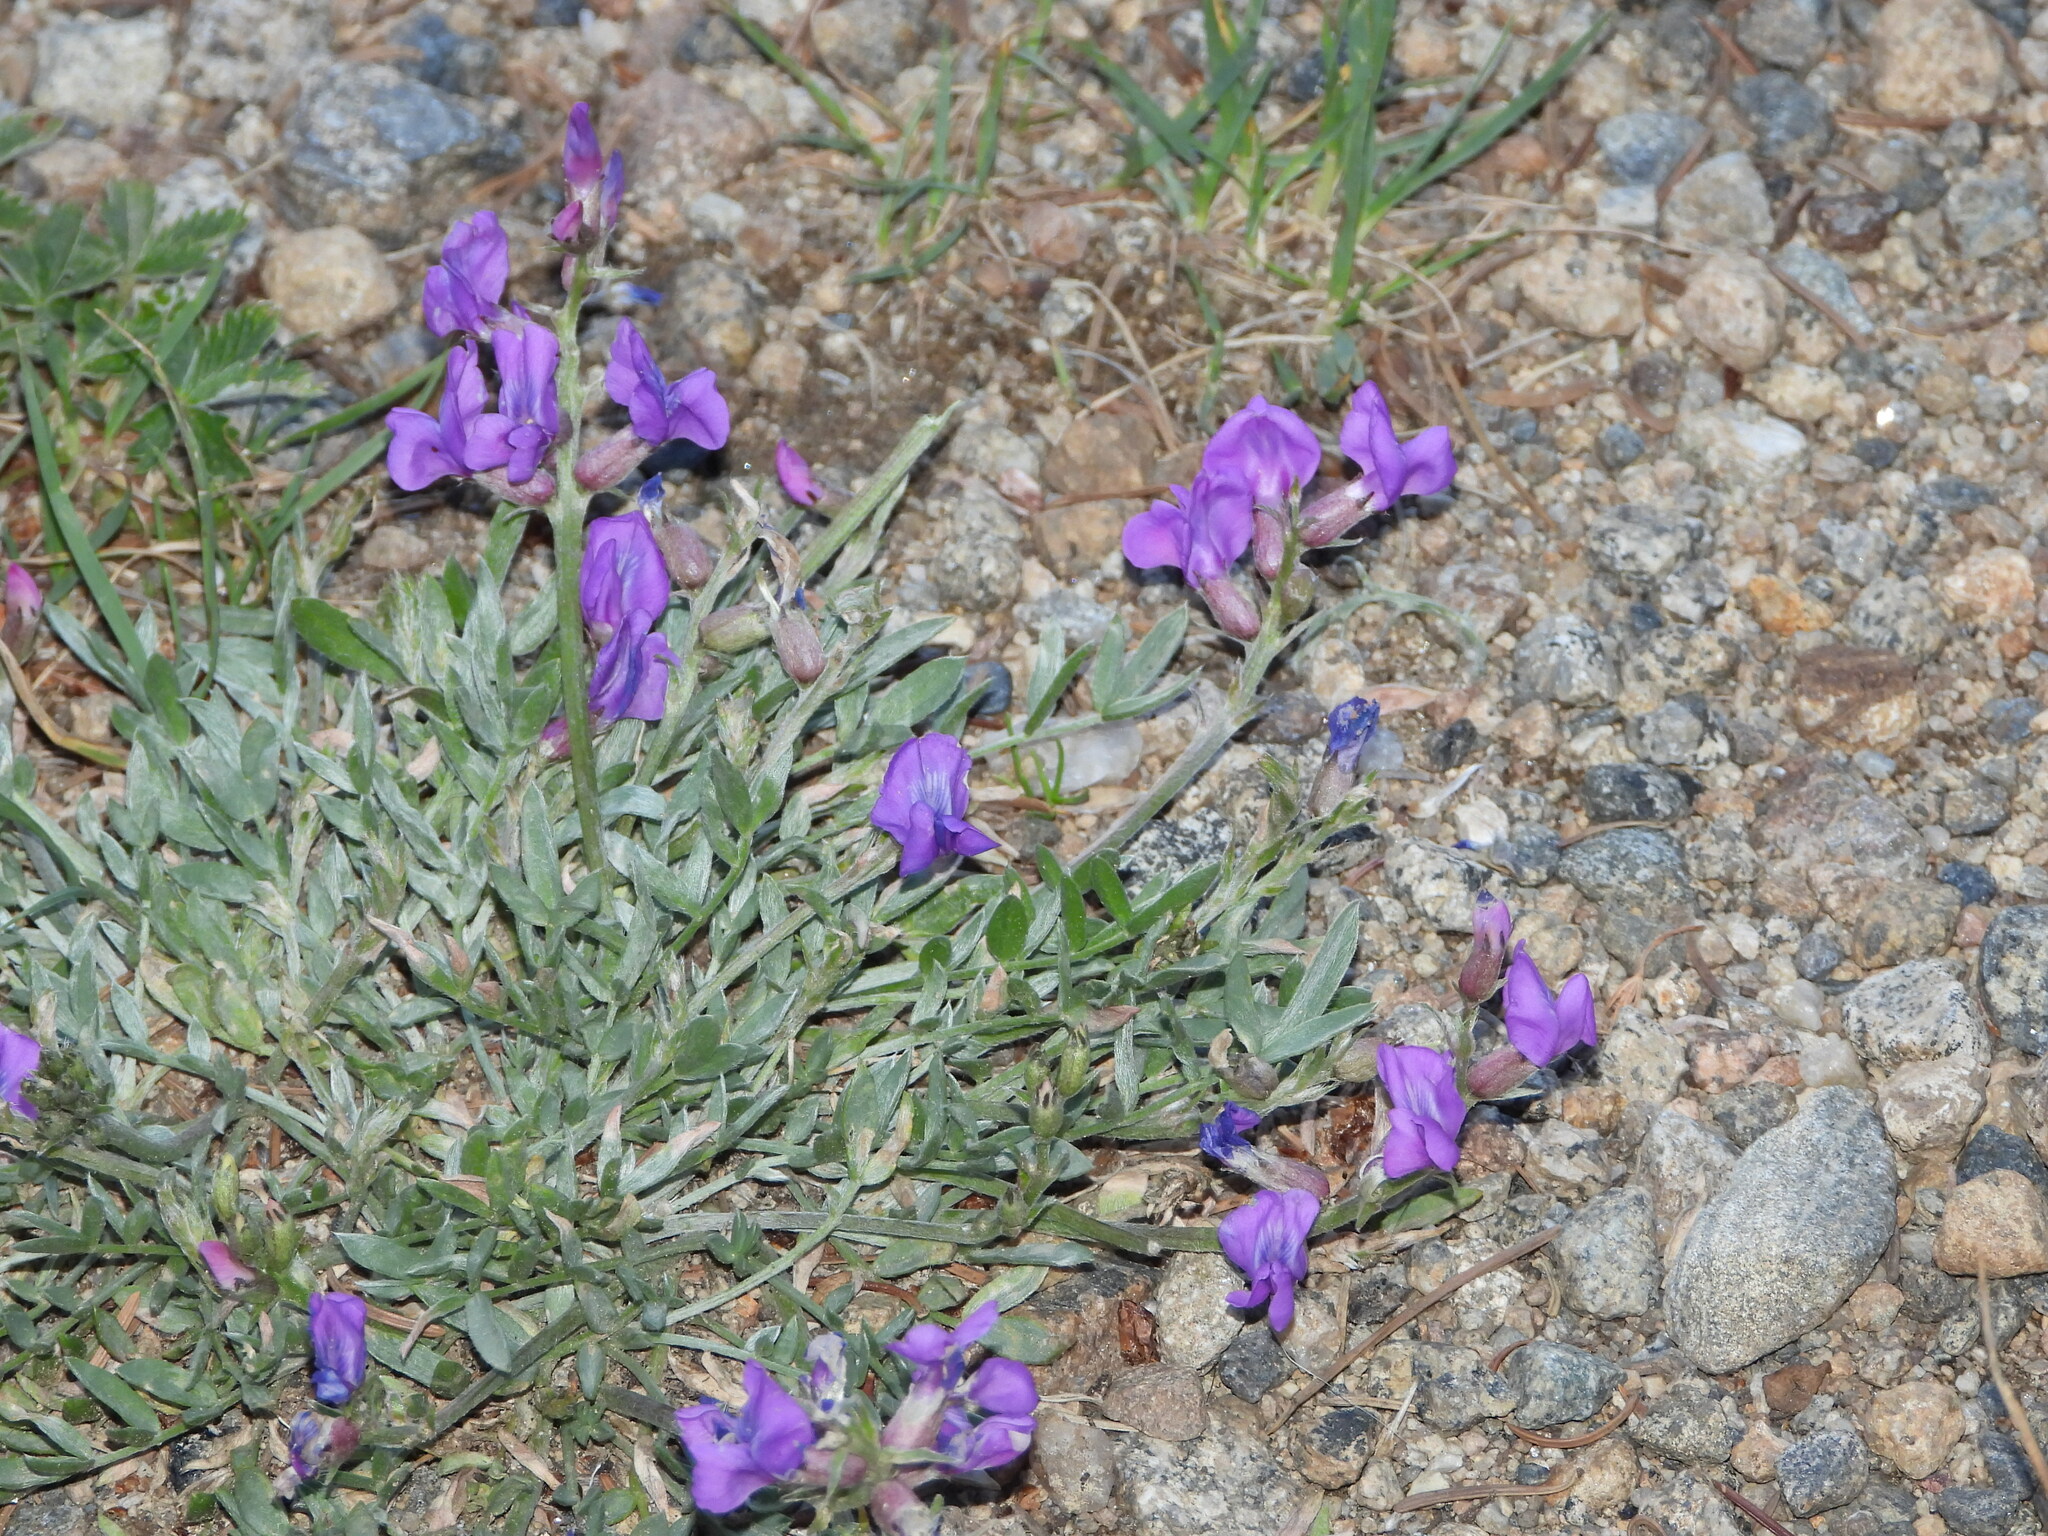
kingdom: Plantae
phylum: Tracheophyta
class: Magnoliopsida
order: Fabales
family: Fabaceae
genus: Oxytropis
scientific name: Oxytropis lambertii
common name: Purple locoweed
